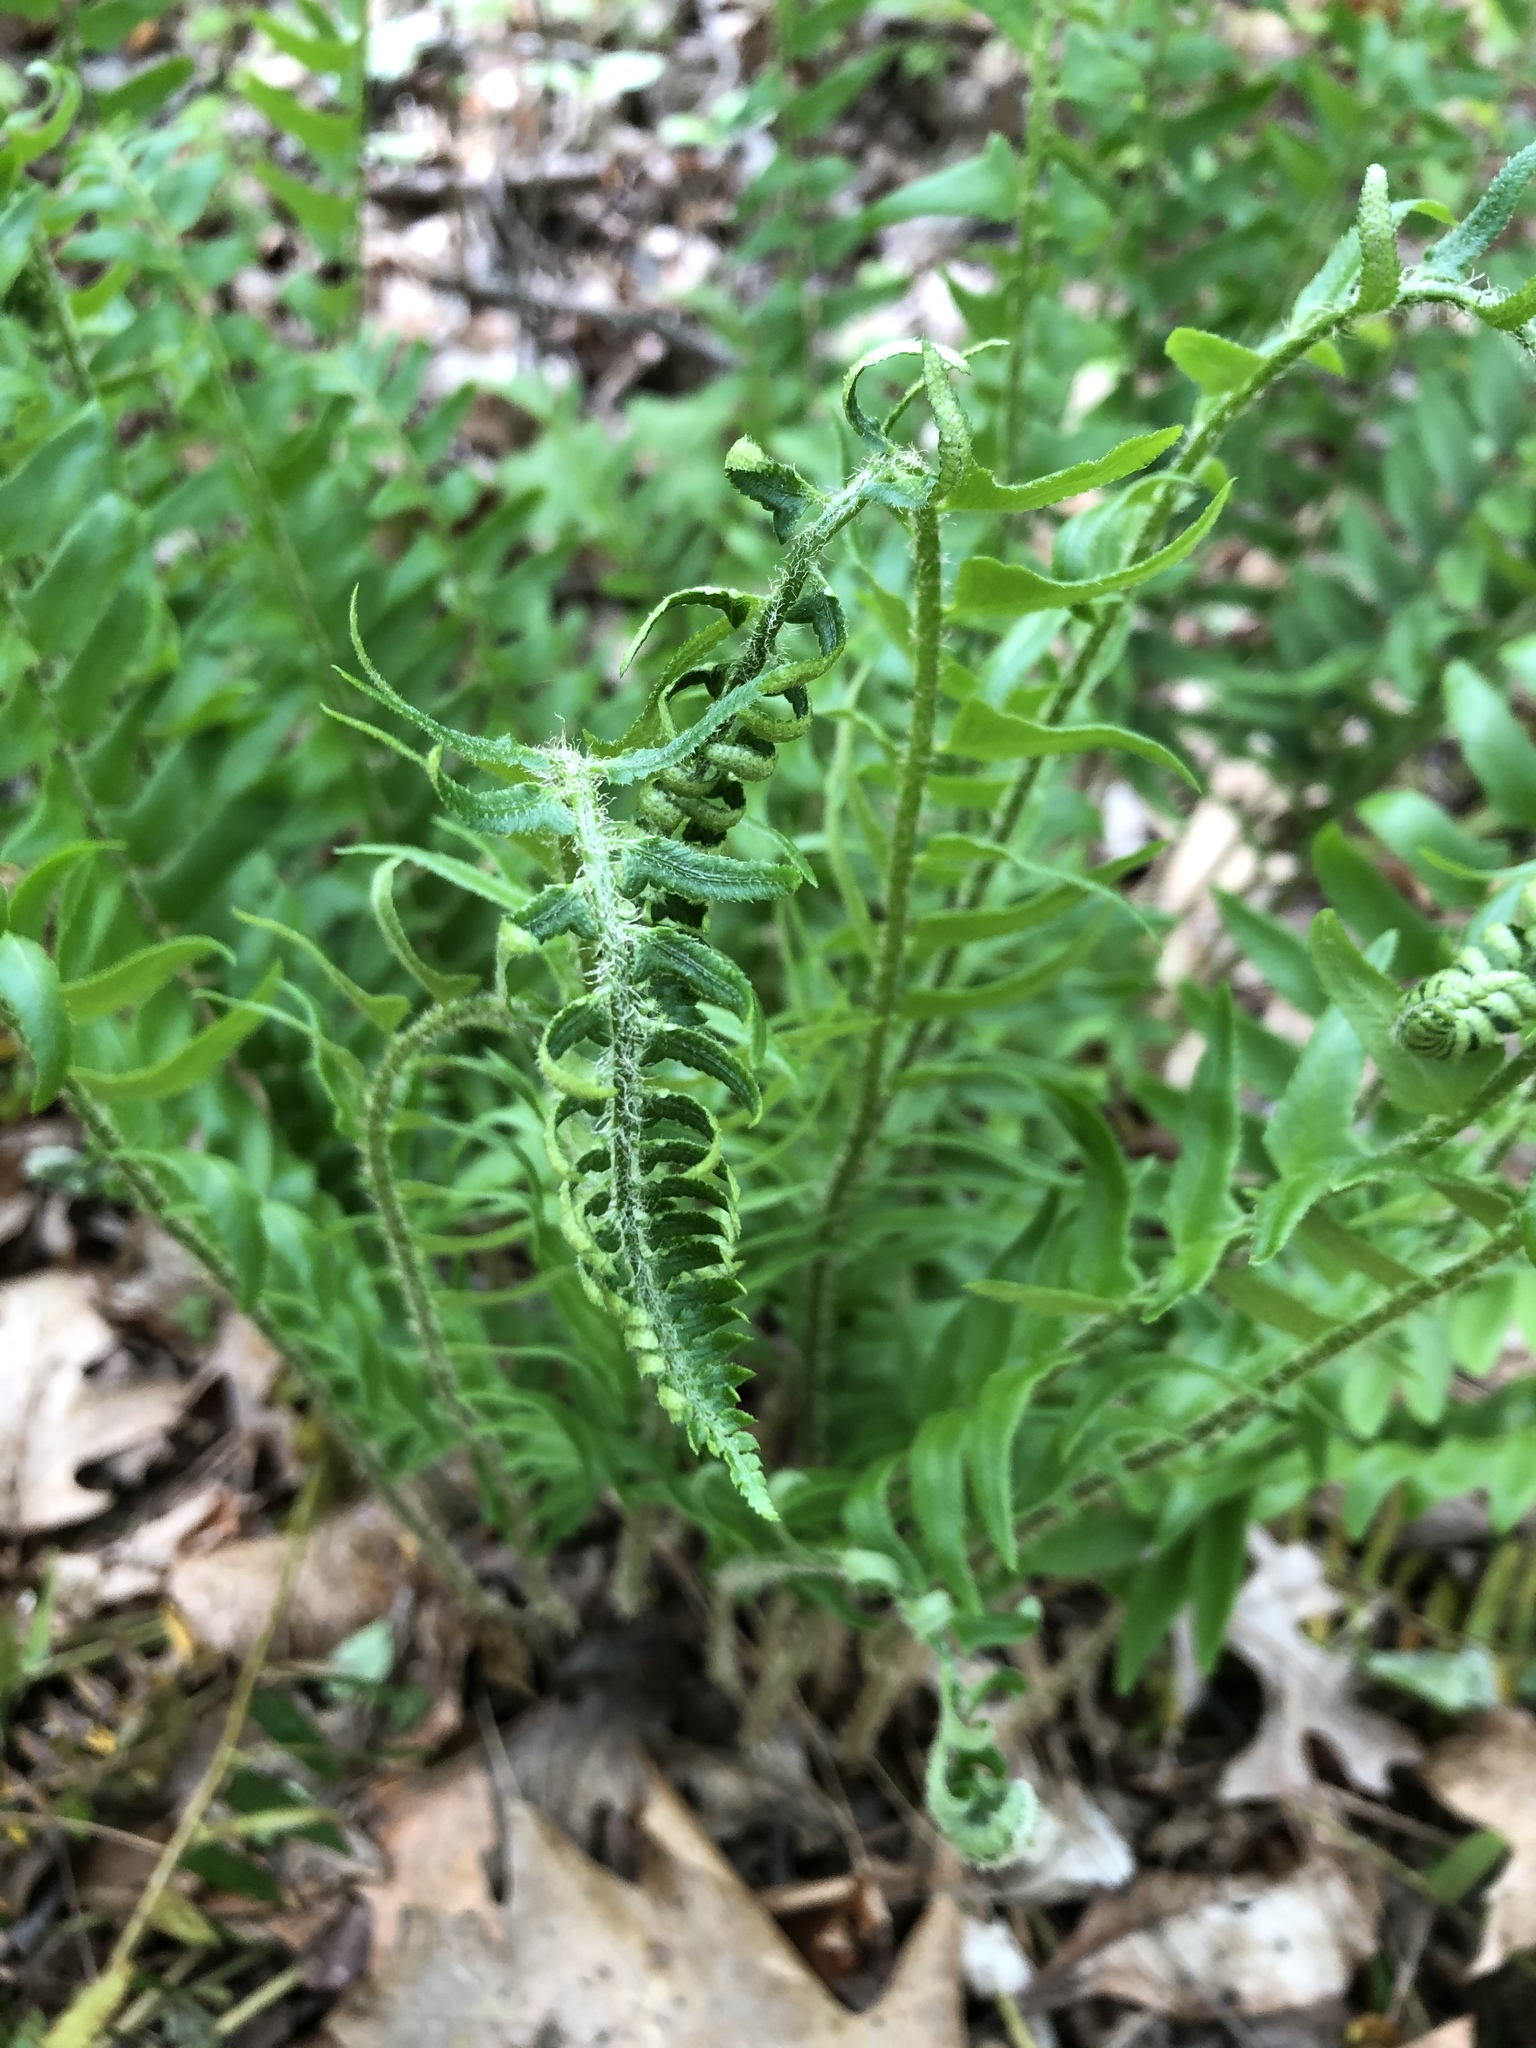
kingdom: Plantae
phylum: Tracheophyta
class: Polypodiopsida
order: Polypodiales
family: Dryopteridaceae
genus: Polystichum
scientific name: Polystichum acrostichoides
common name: Christmas fern
